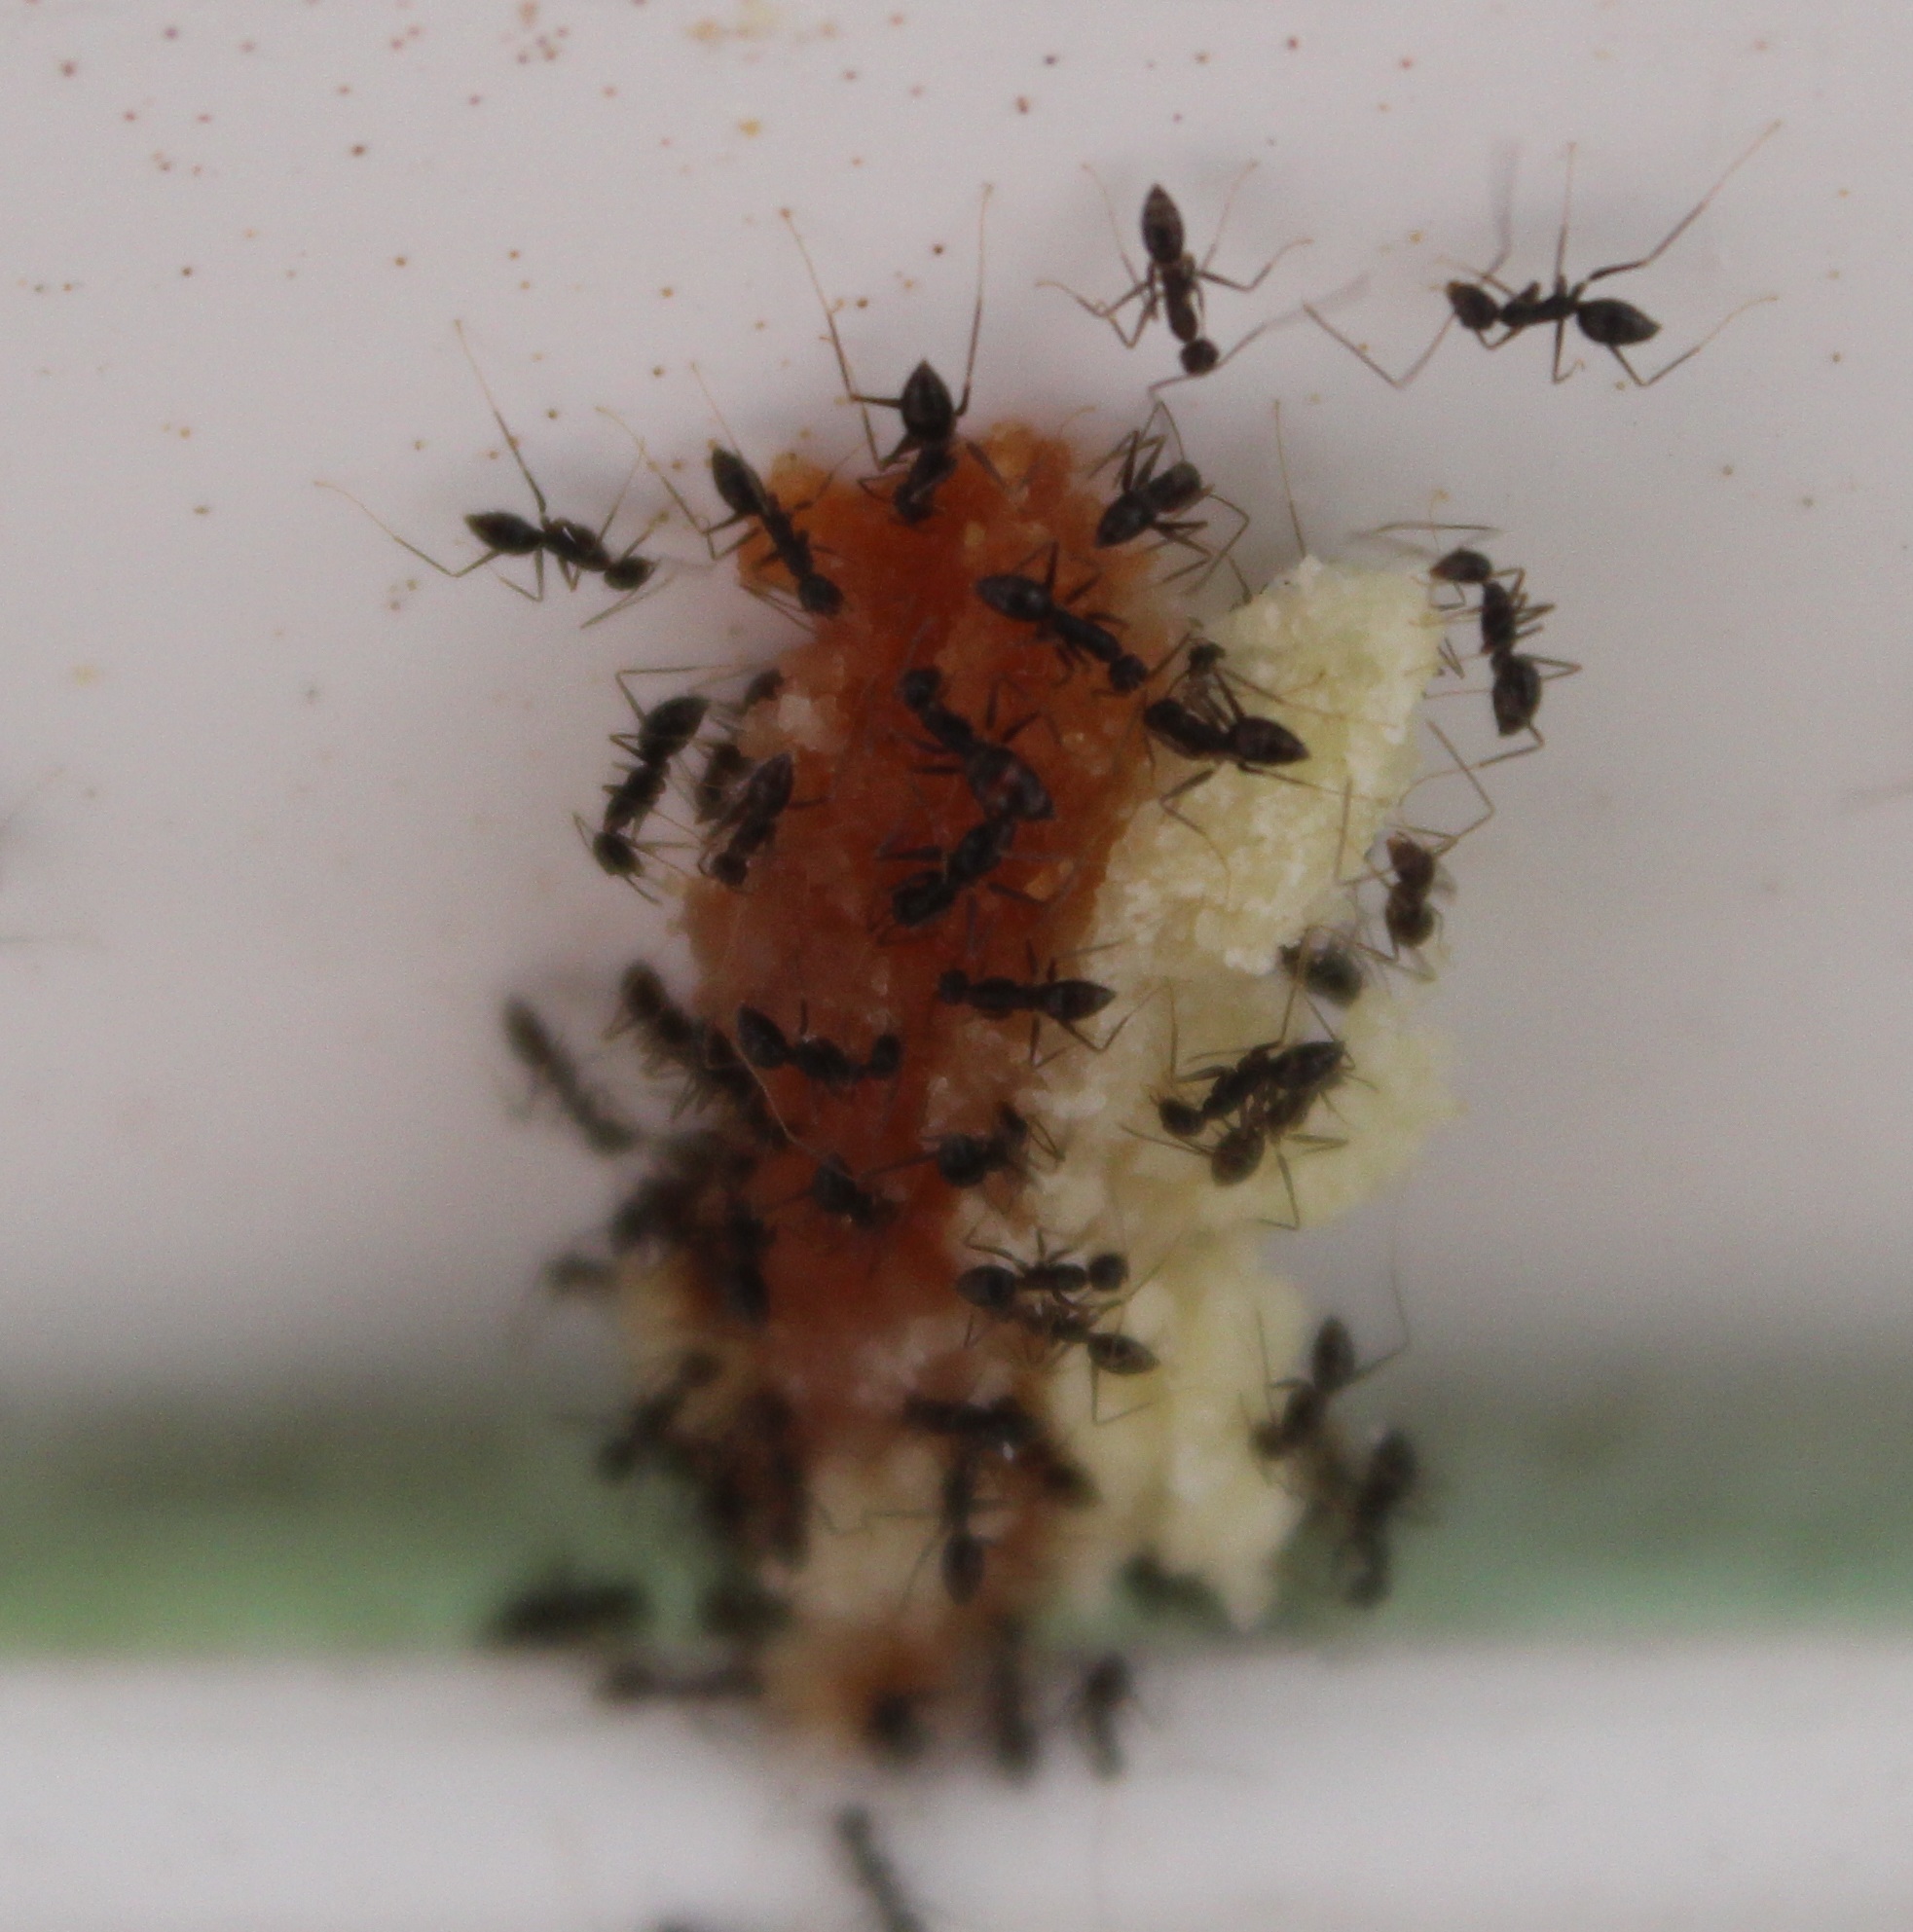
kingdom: Animalia
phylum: Arthropoda
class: Insecta
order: Hymenoptera
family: Formicidae
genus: Paratrechina
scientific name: Paratrechina longicornis
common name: Longhorned crazy ant
